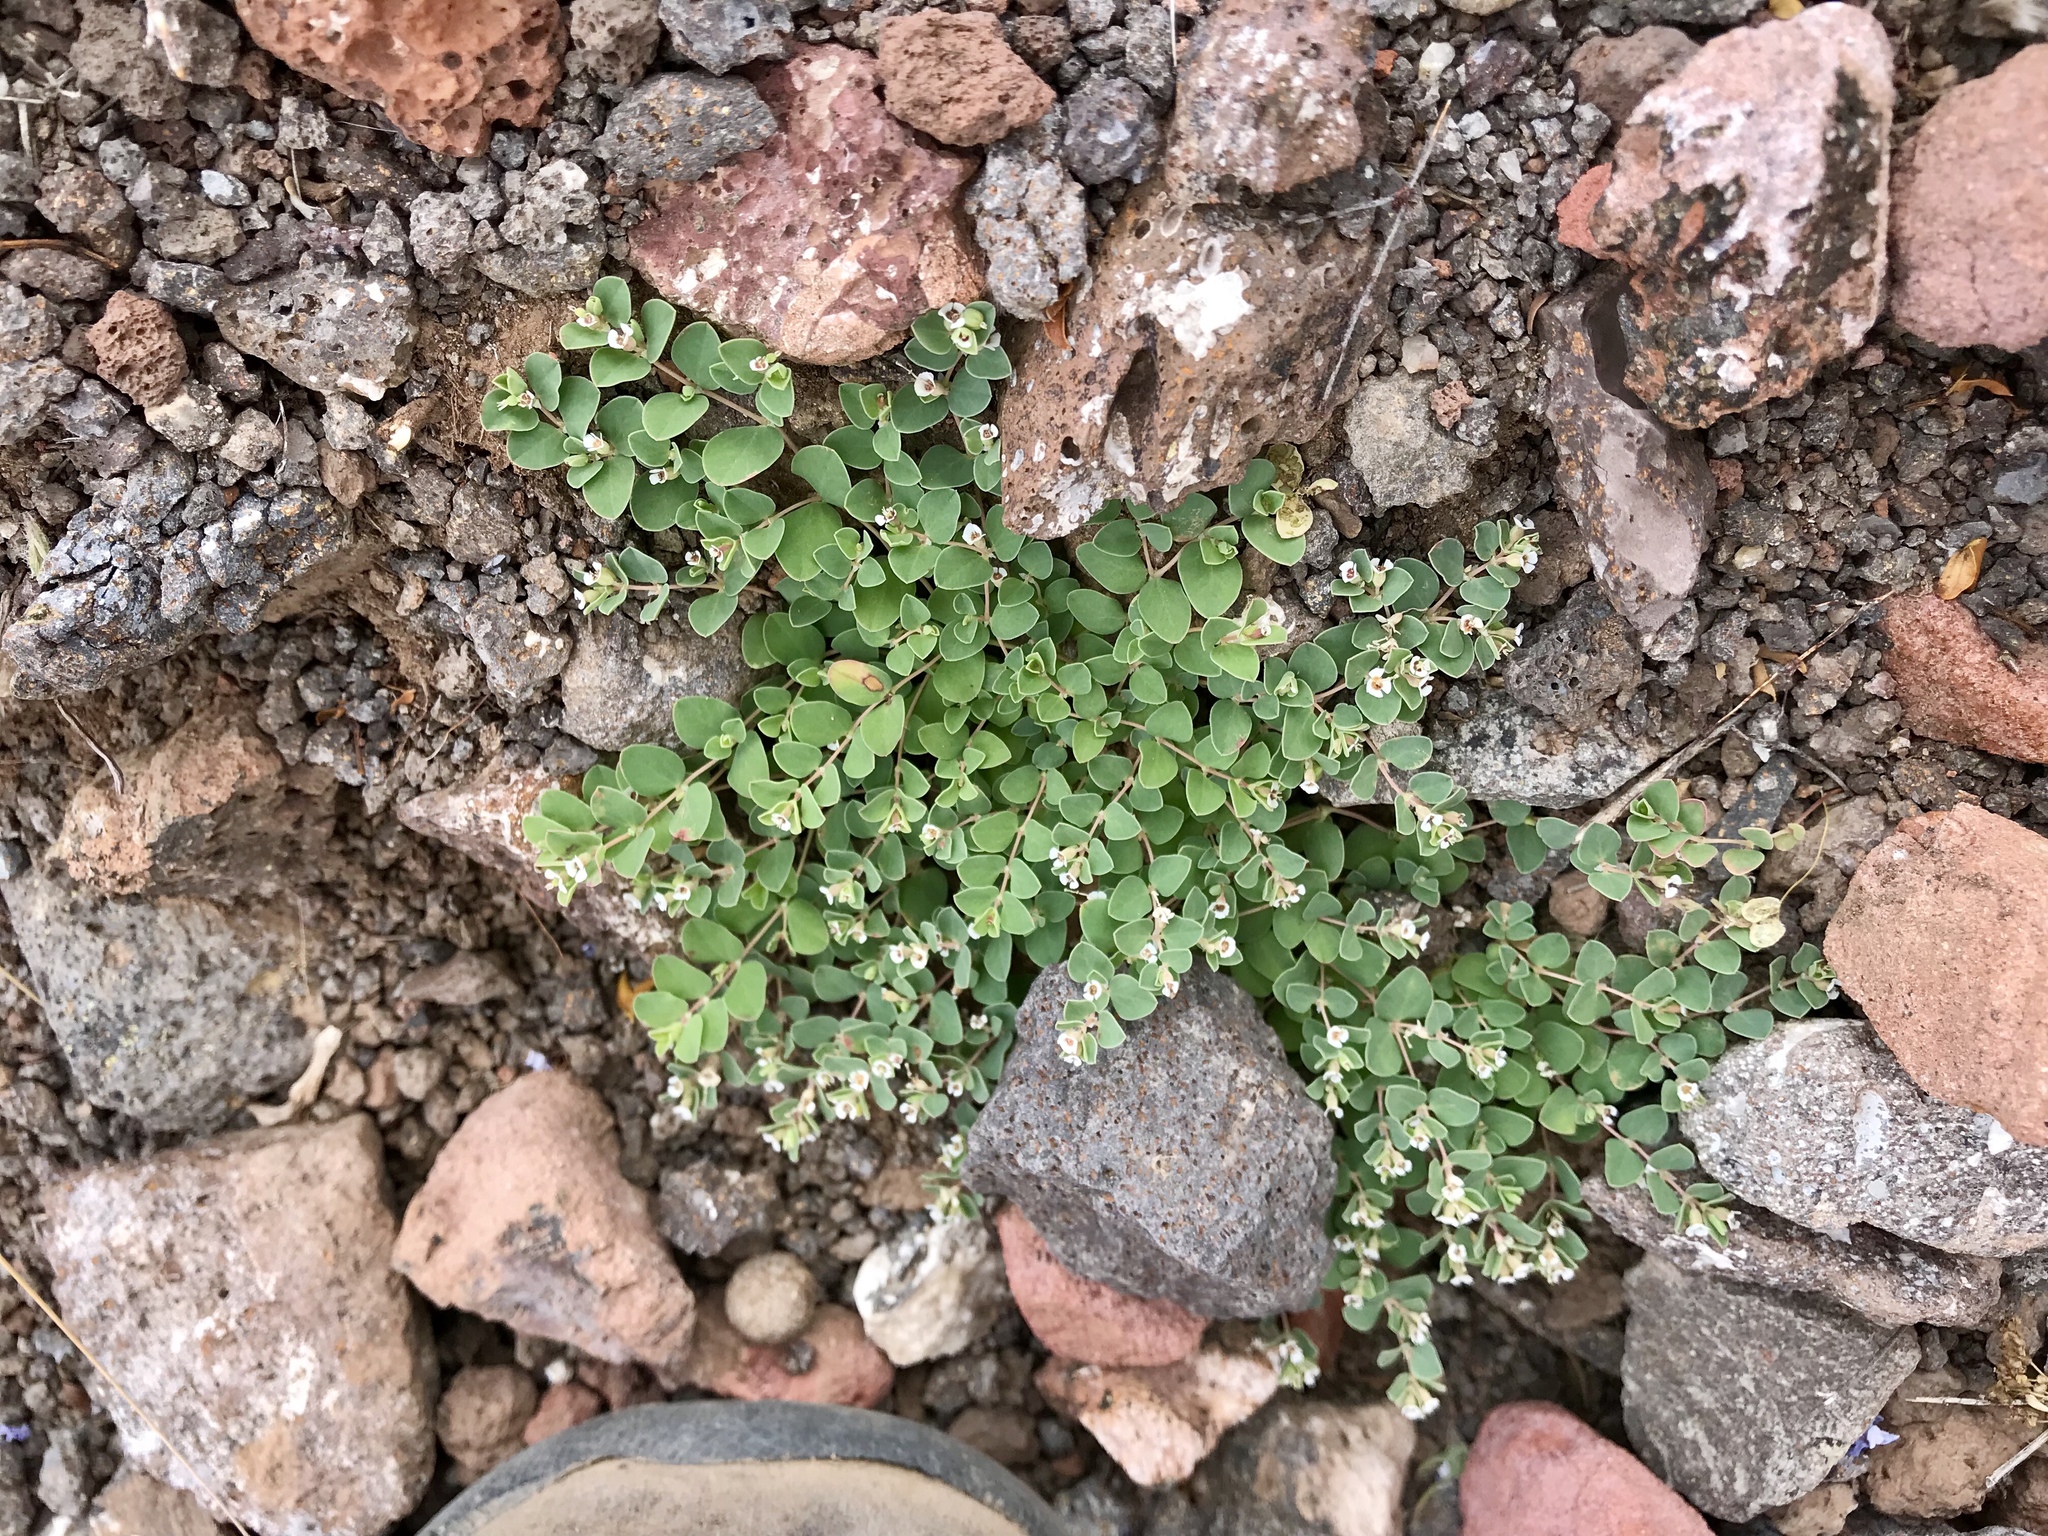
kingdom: Plantae
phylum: Tracheophyta
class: Magnoliopsida
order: Malpighiales
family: Euphorbiaceae
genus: Euphorbia
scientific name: Euphorbia albomarginata
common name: Whitemargin sandmat
